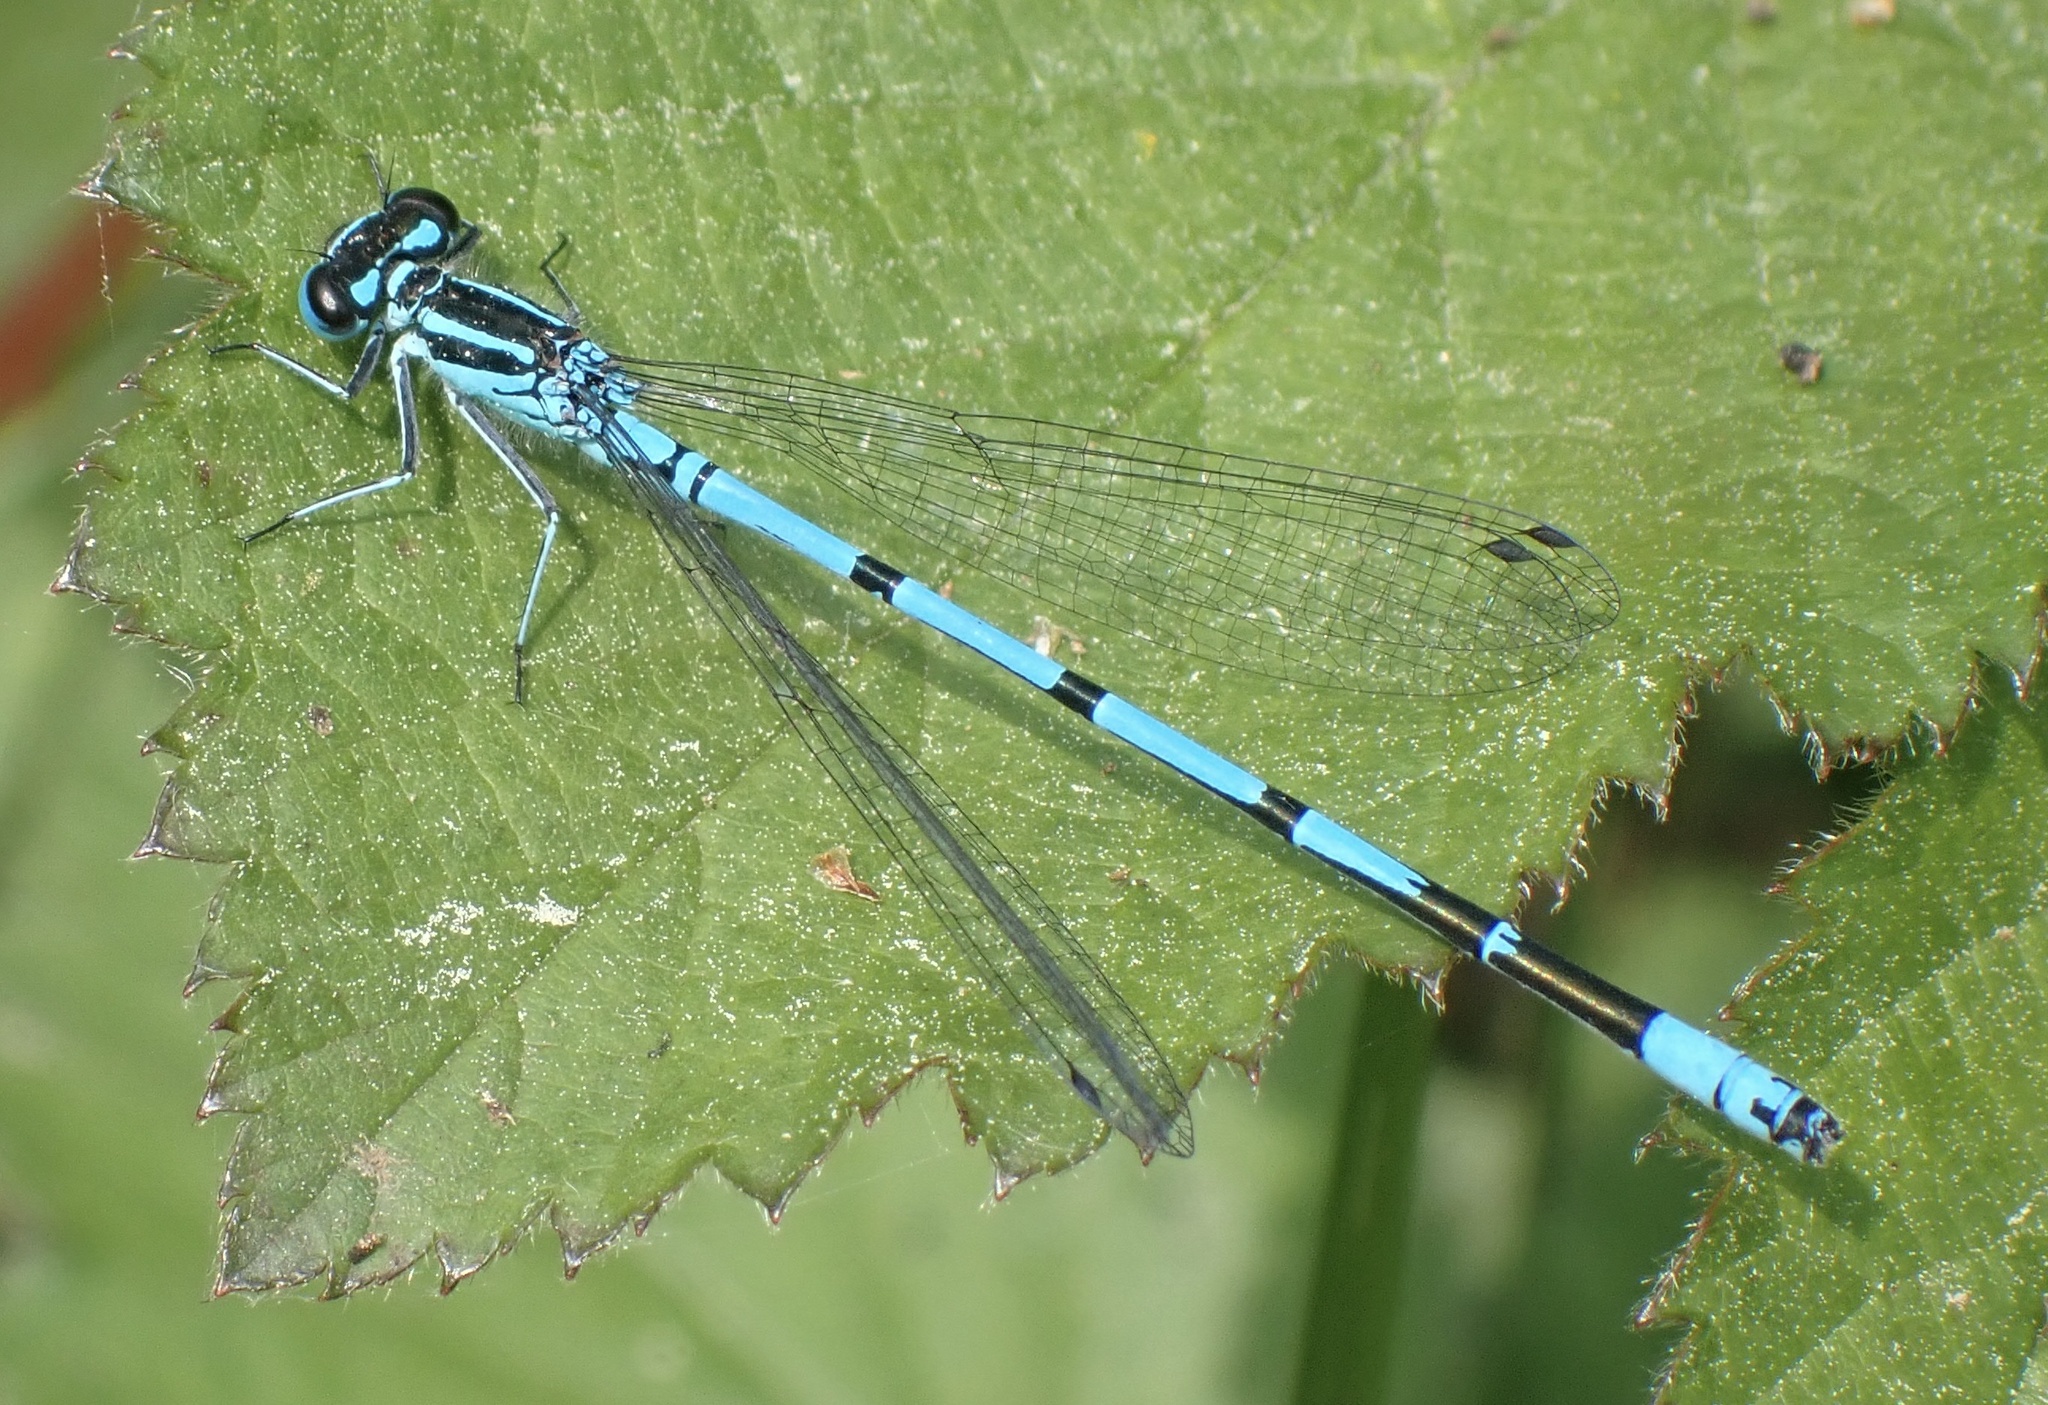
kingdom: Animalia
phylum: Arthropoda
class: Insecta
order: Odonata
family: Coenagrionidae
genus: Coenagrion
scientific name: Coenagrion puella
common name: Azure damselfly
